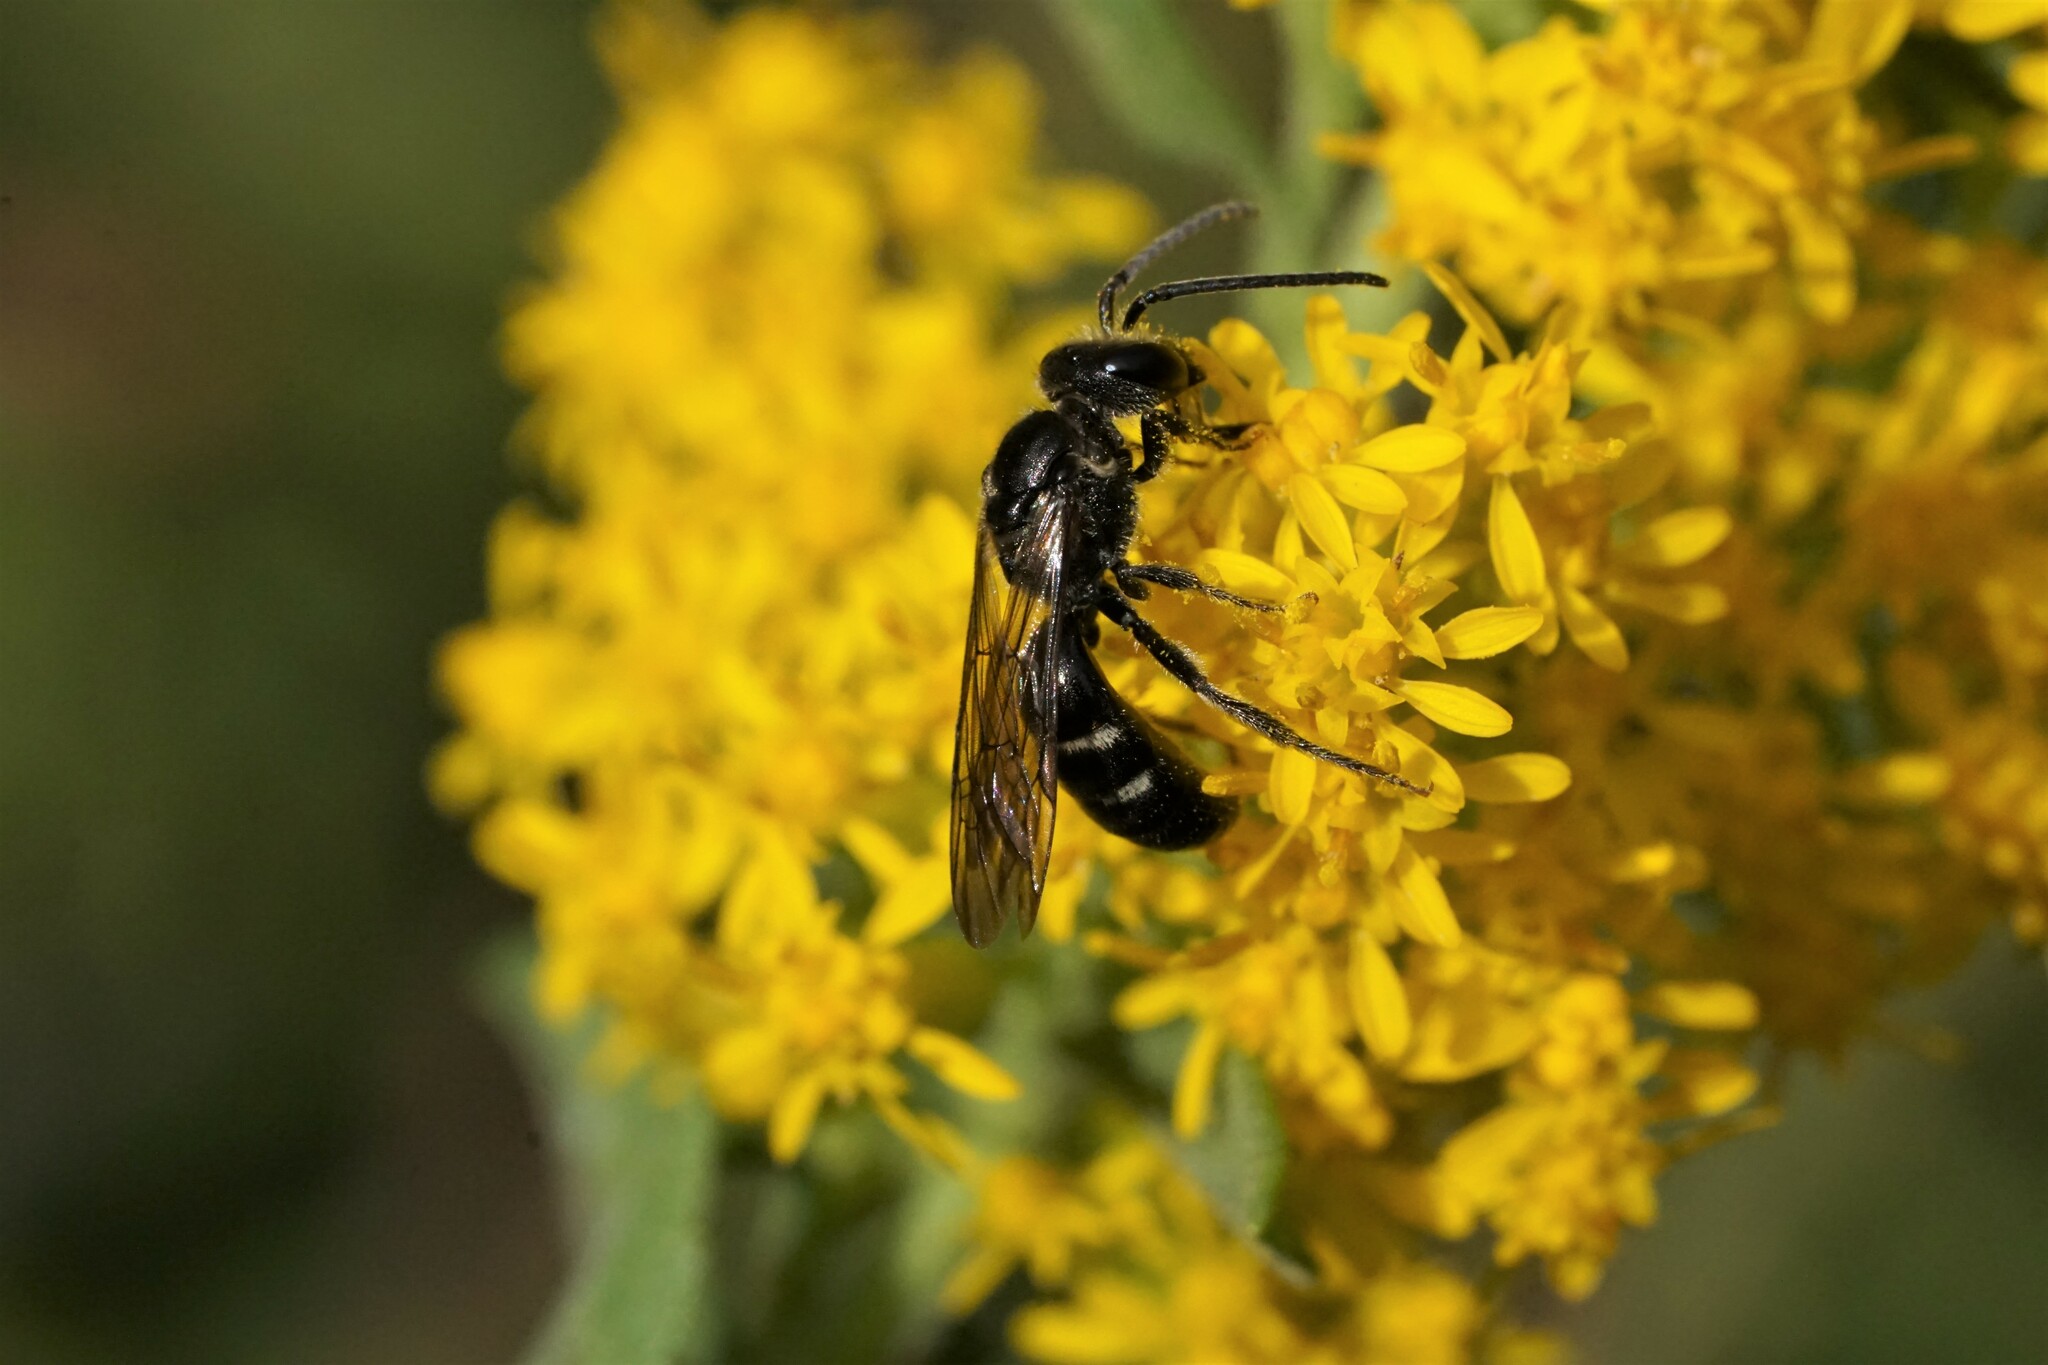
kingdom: Animalia
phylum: Arthropoda
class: Insecta
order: Hymenoptera
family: Halictidae
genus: Lasioglossum
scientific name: Lasioglossum fuscipenne
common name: Brown-winged sweat bee
